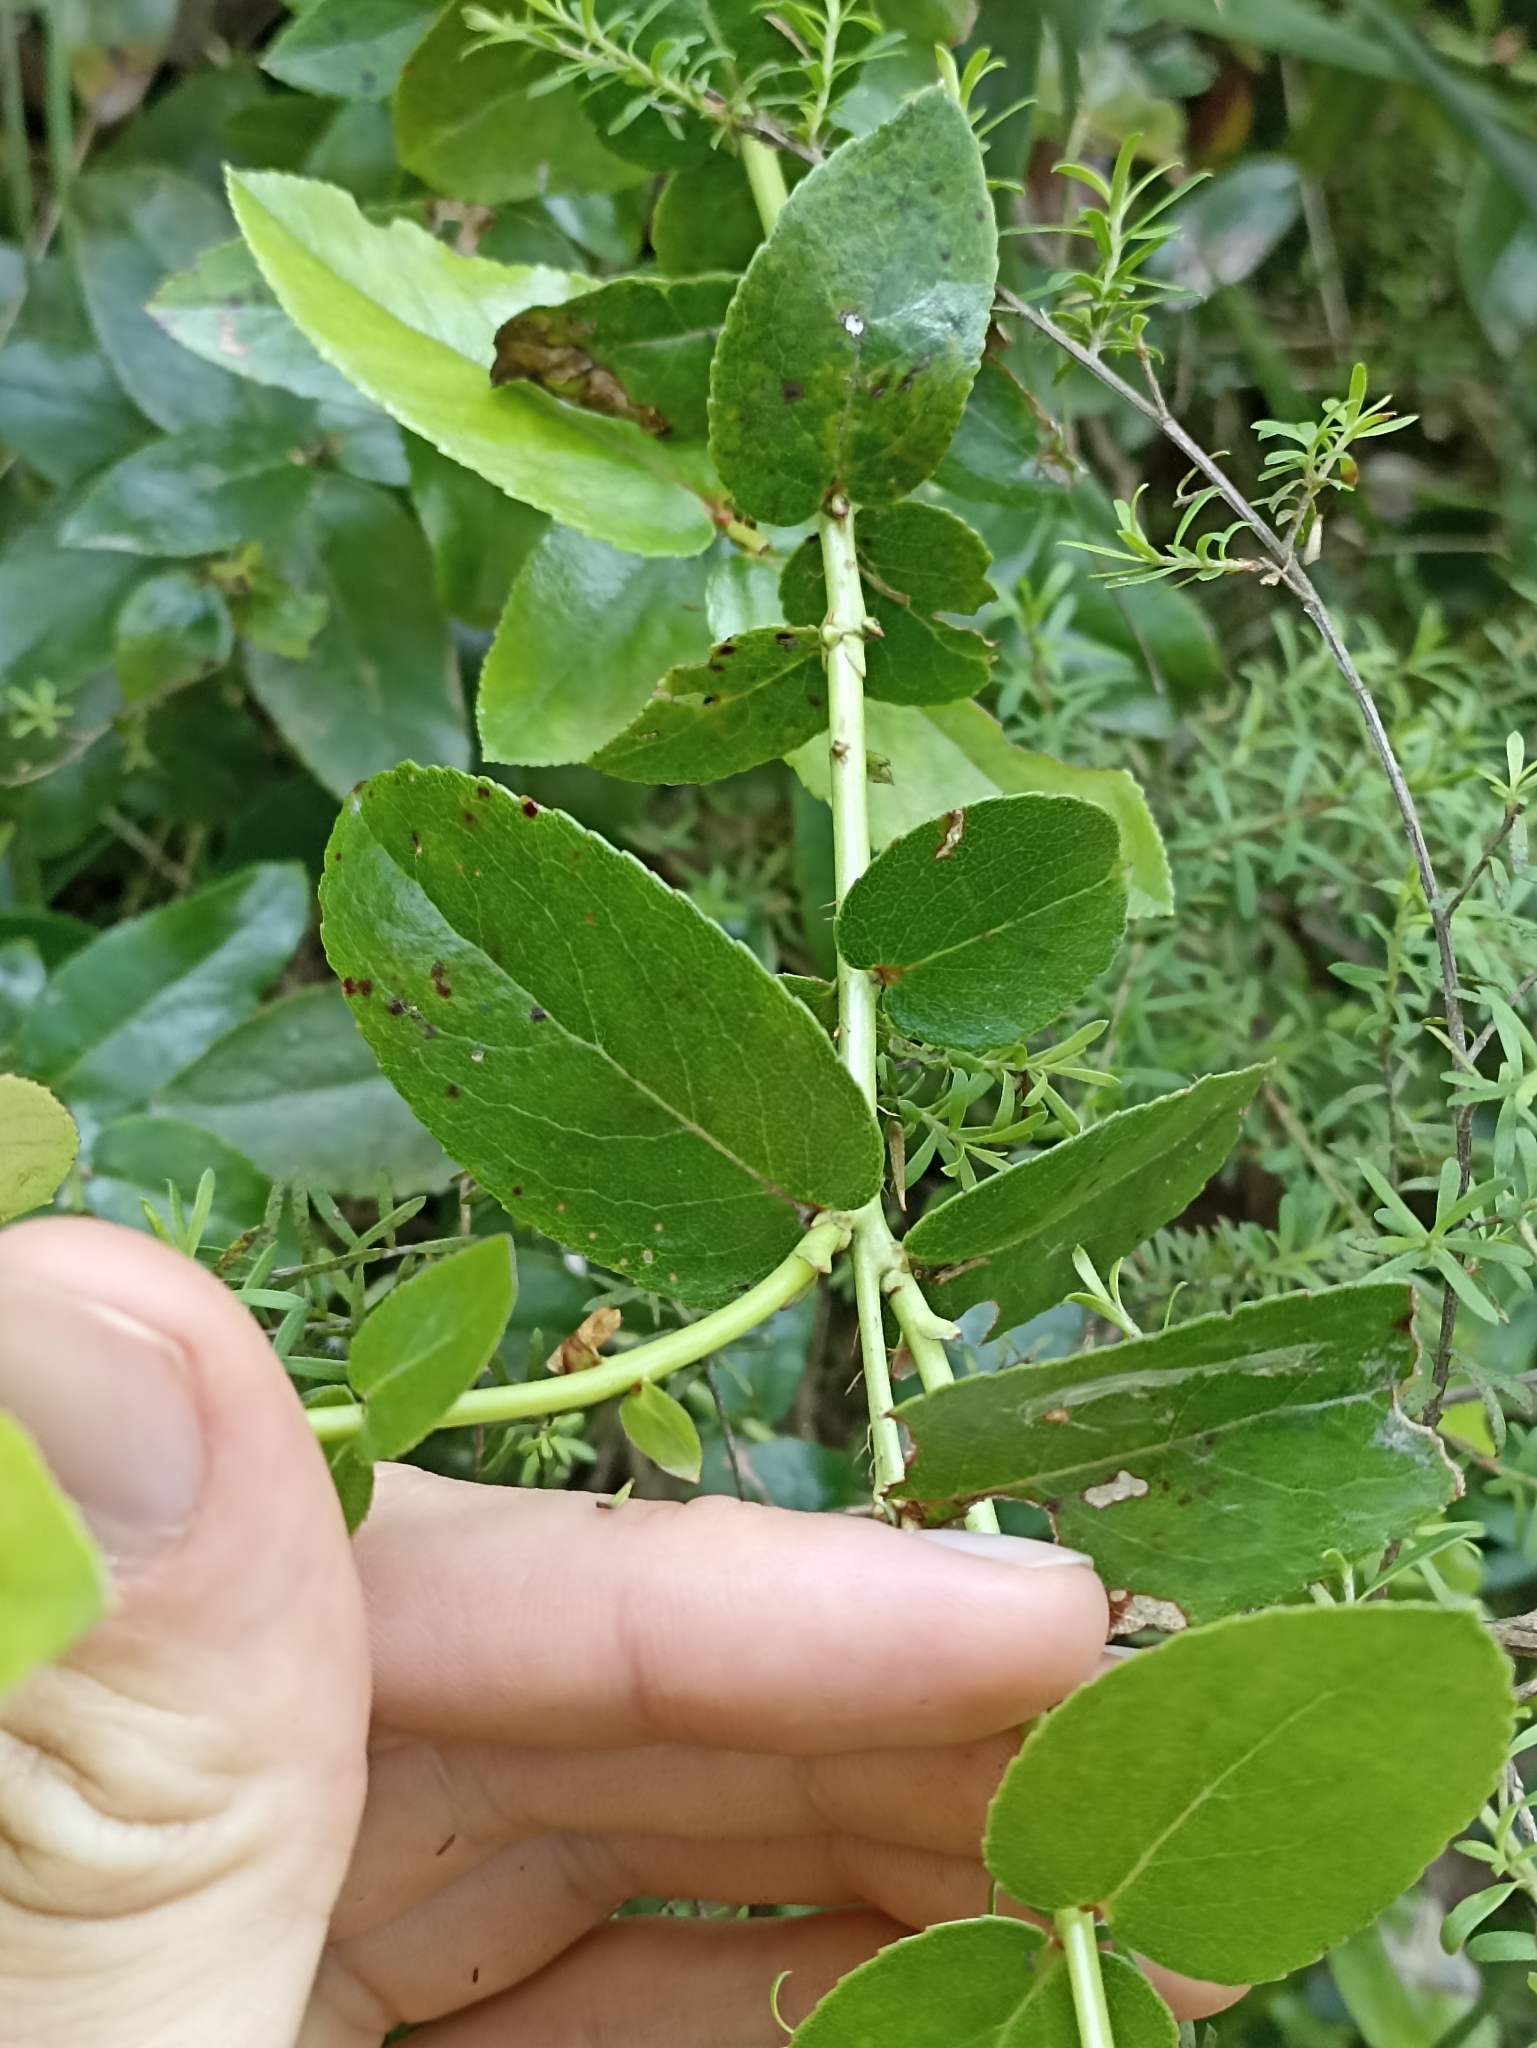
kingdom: Plantae
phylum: Tracheophyta
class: Magnoliopsida
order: Ericales
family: Ericaceae
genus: Gaultheria
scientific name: Gaultheria oppositifolia
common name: Snowberry
